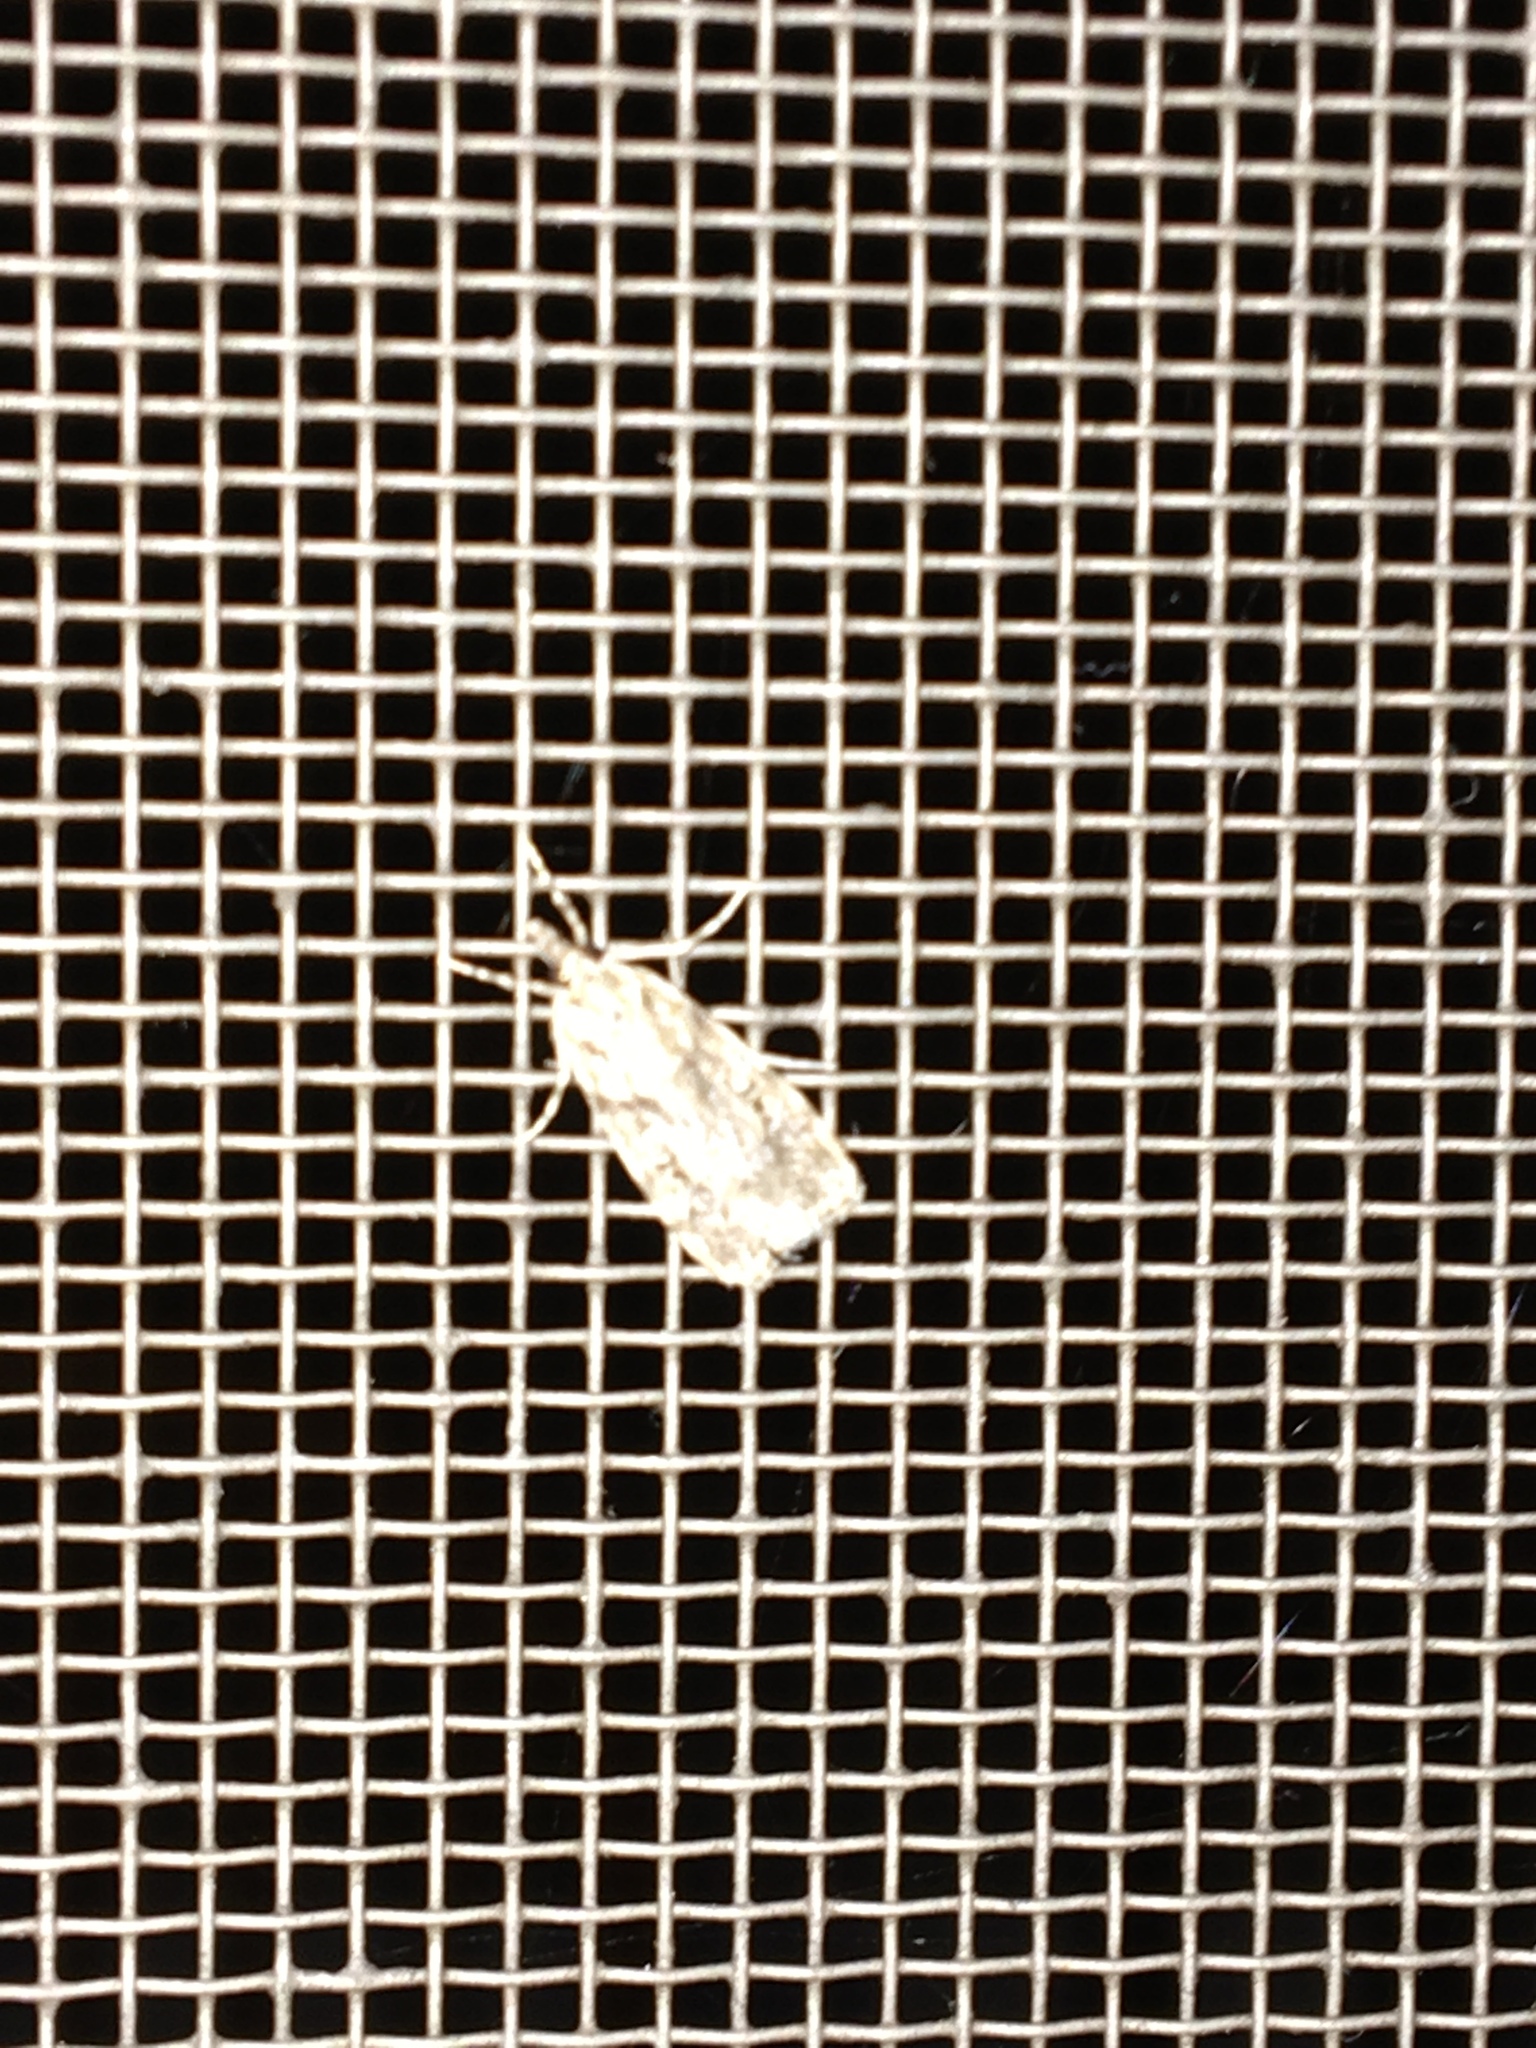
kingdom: Animalia
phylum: Arthropoda
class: Insecta
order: Lepidoptera
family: Crambidae
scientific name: Crambidae
